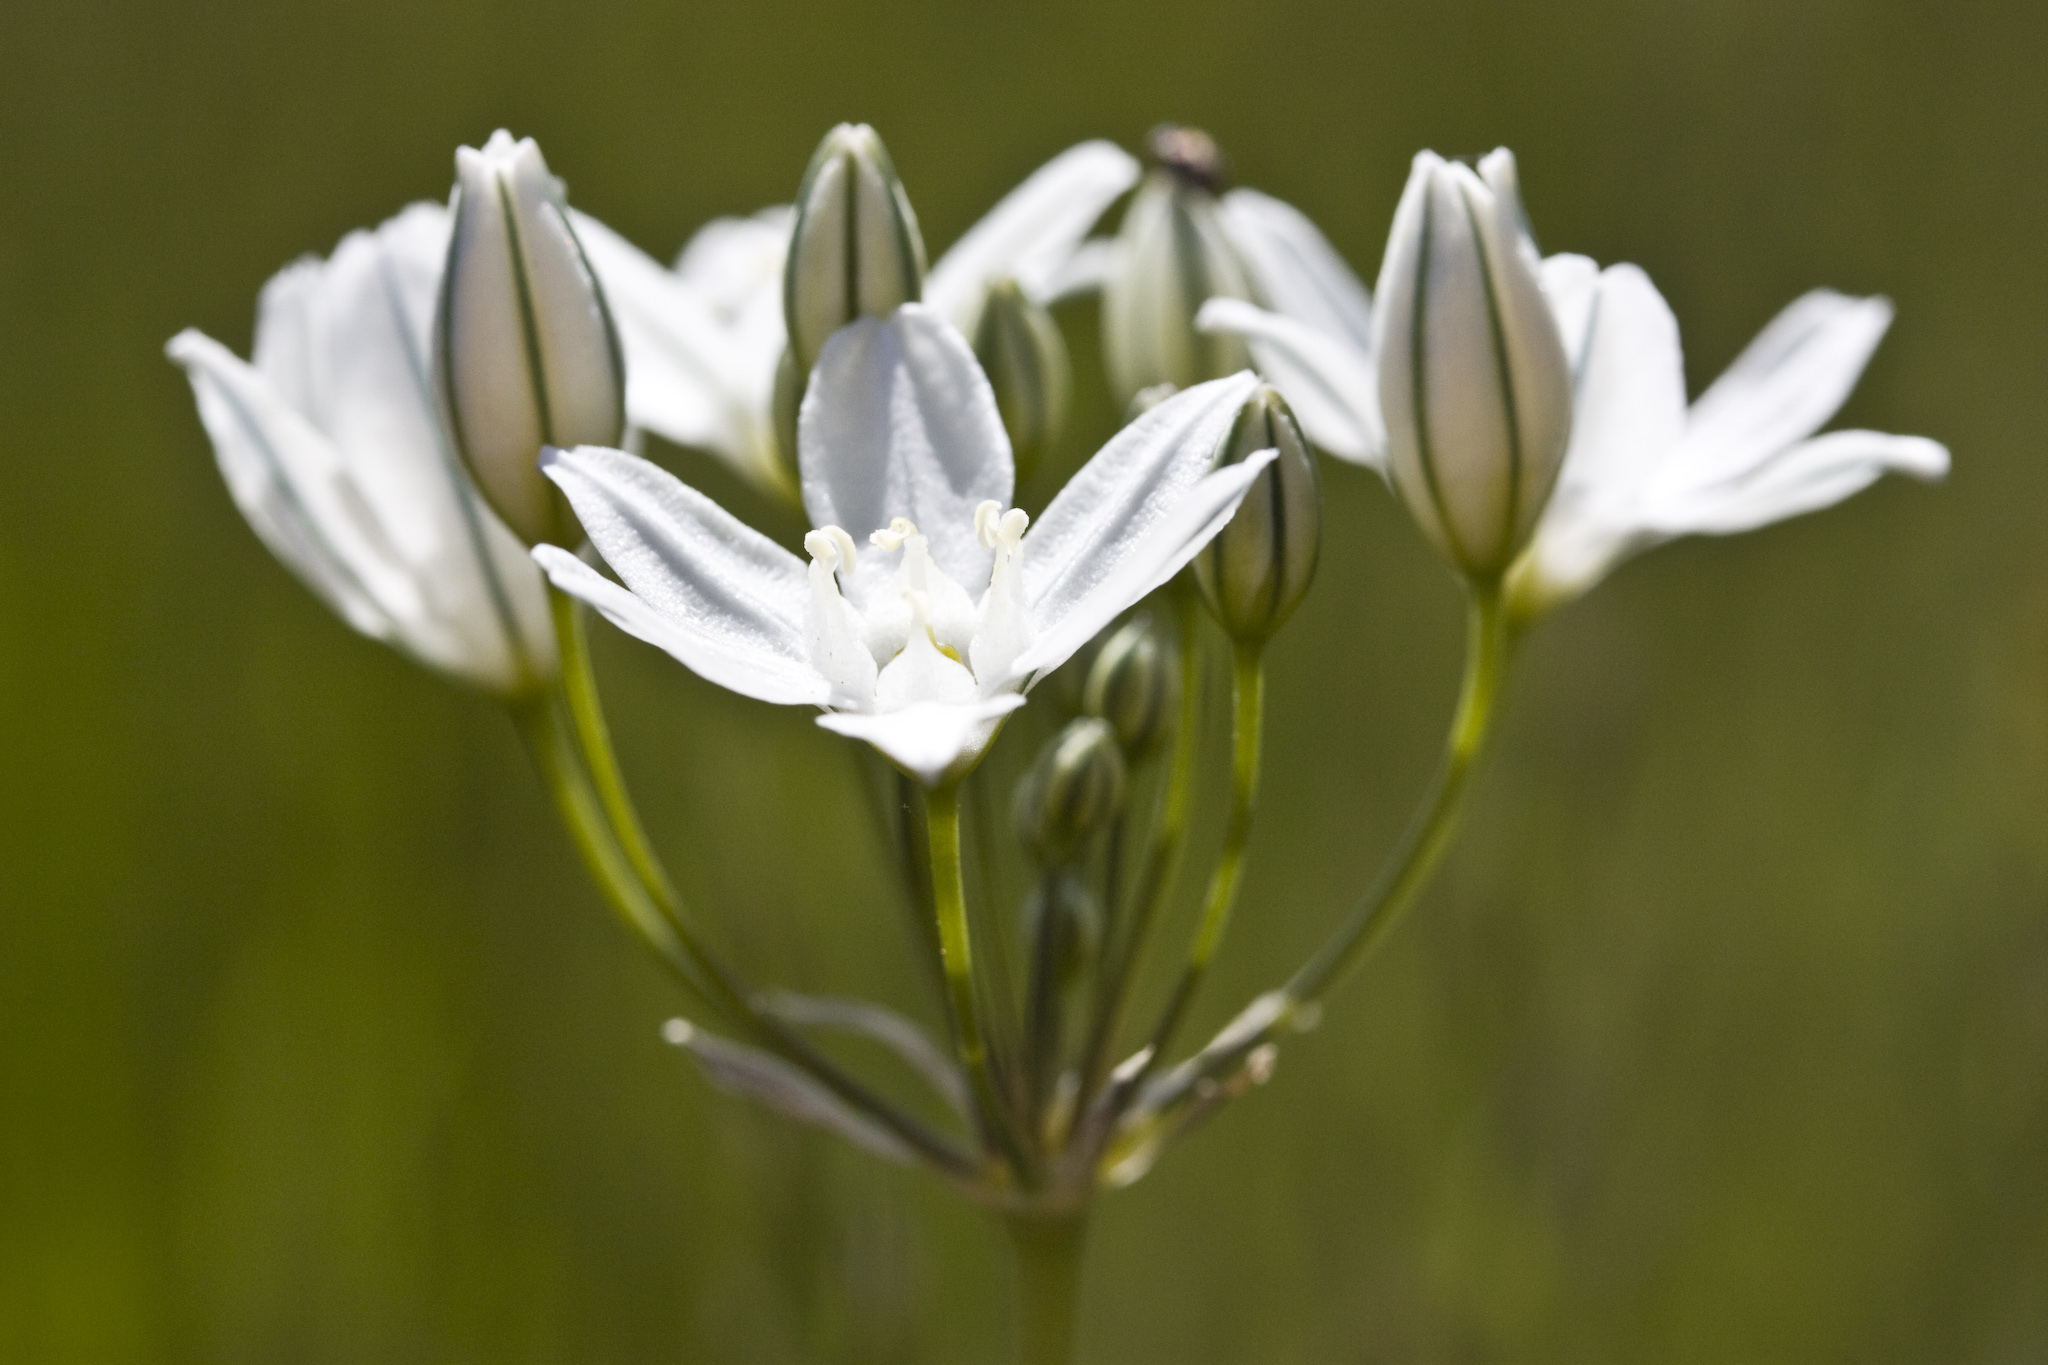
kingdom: Plantae
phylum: Tracheophyta
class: Liliopsida
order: Asparagales
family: Asparagaceae
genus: Triteleia
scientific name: Triteleia hyacinthina
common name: White brodiaea
